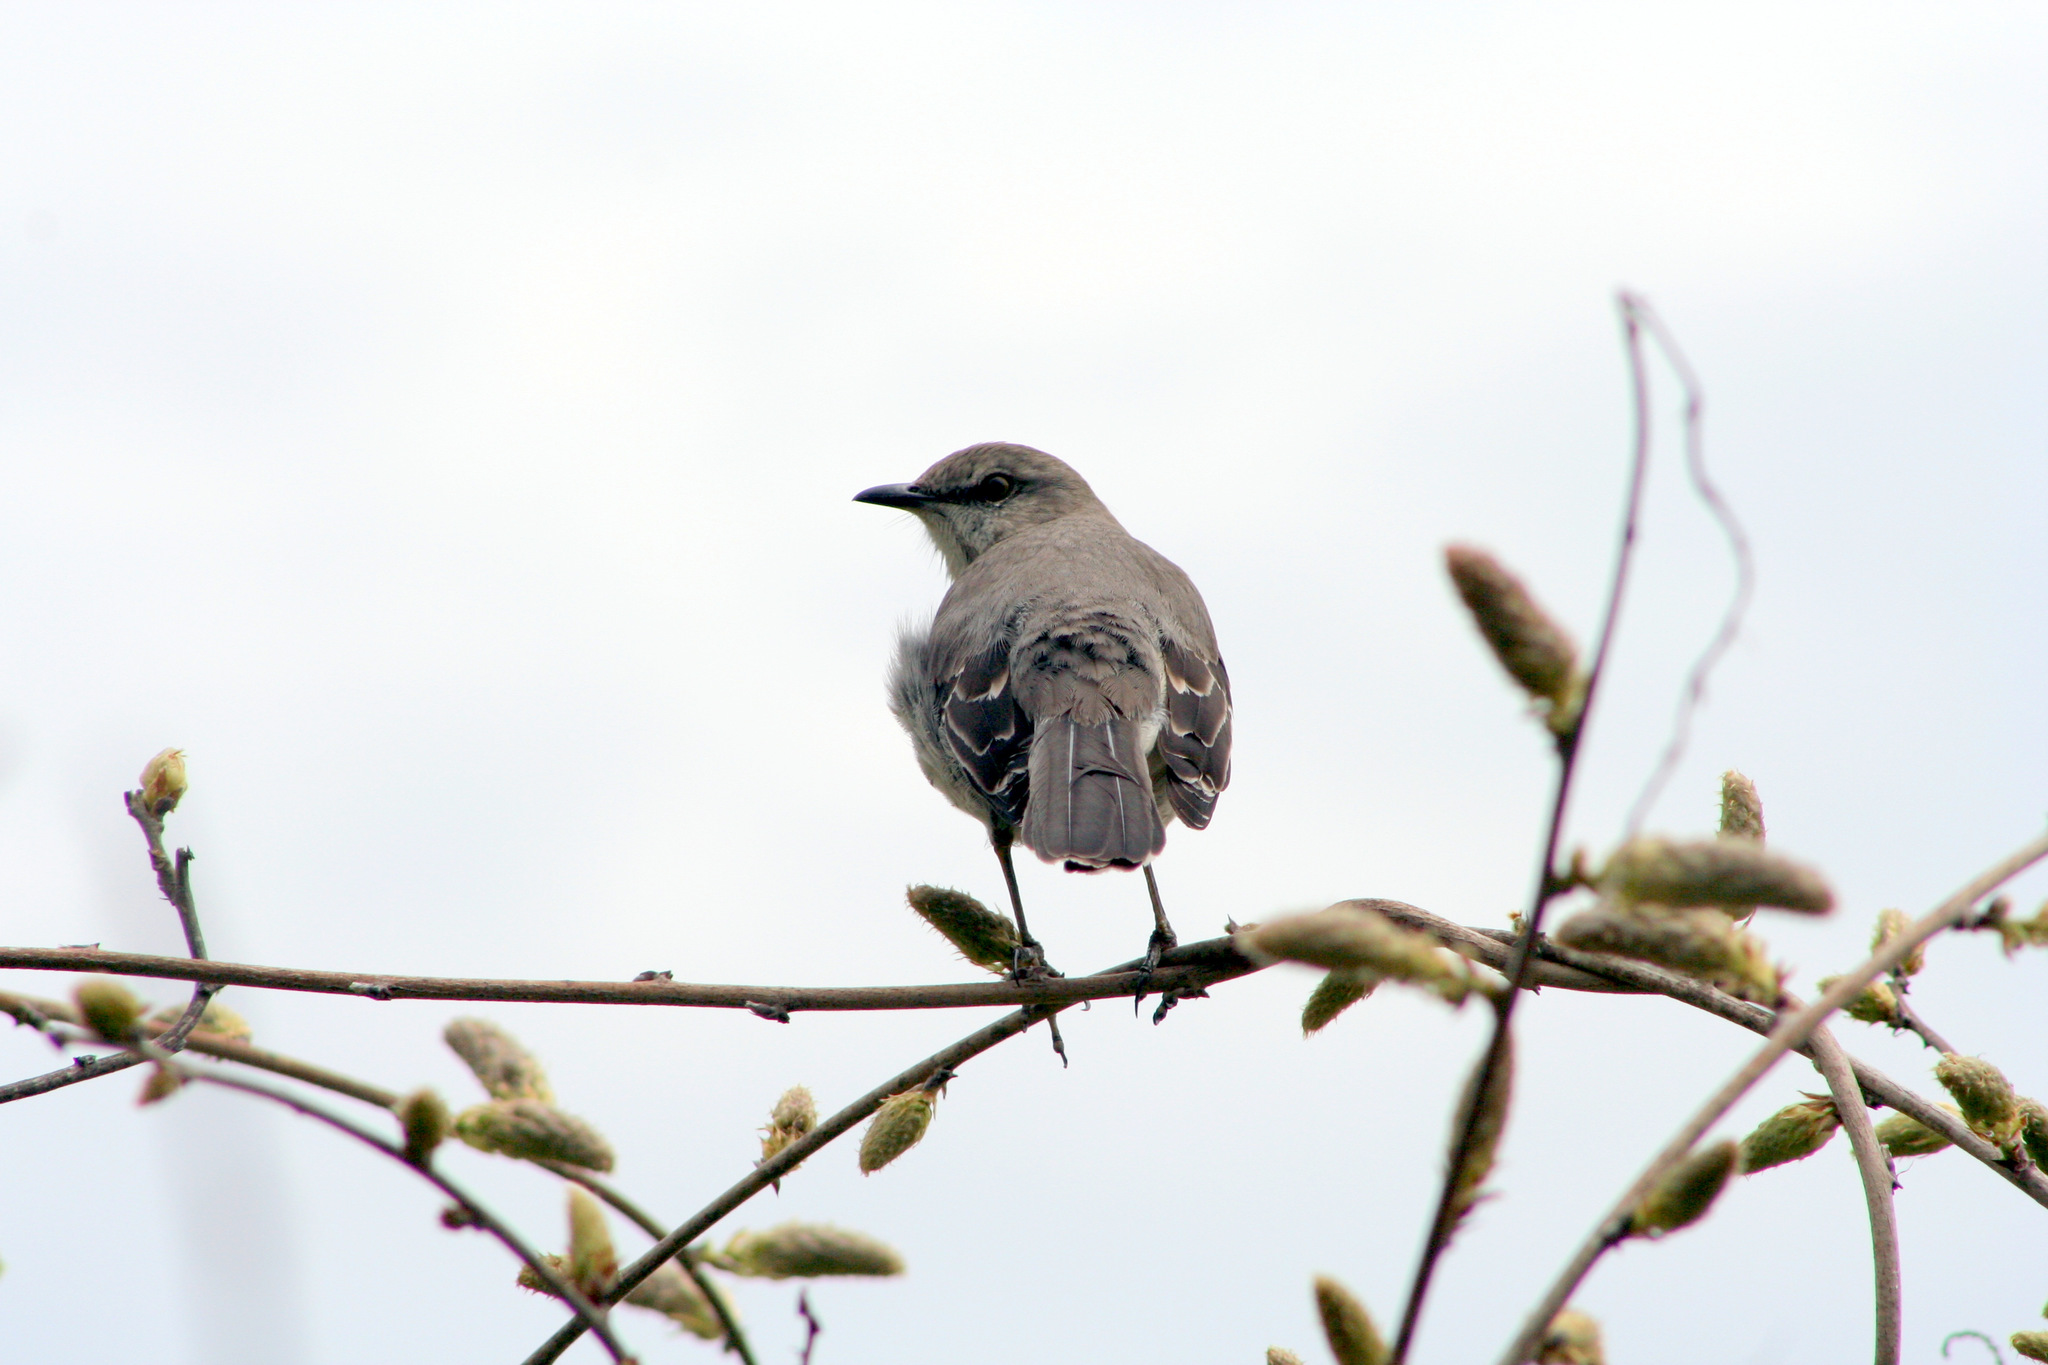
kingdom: Animalia
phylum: Chordata
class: Aves
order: Passeriformes
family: Mimidae
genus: Mimus
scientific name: Mimus polyglottos
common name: Northern mockingbird
